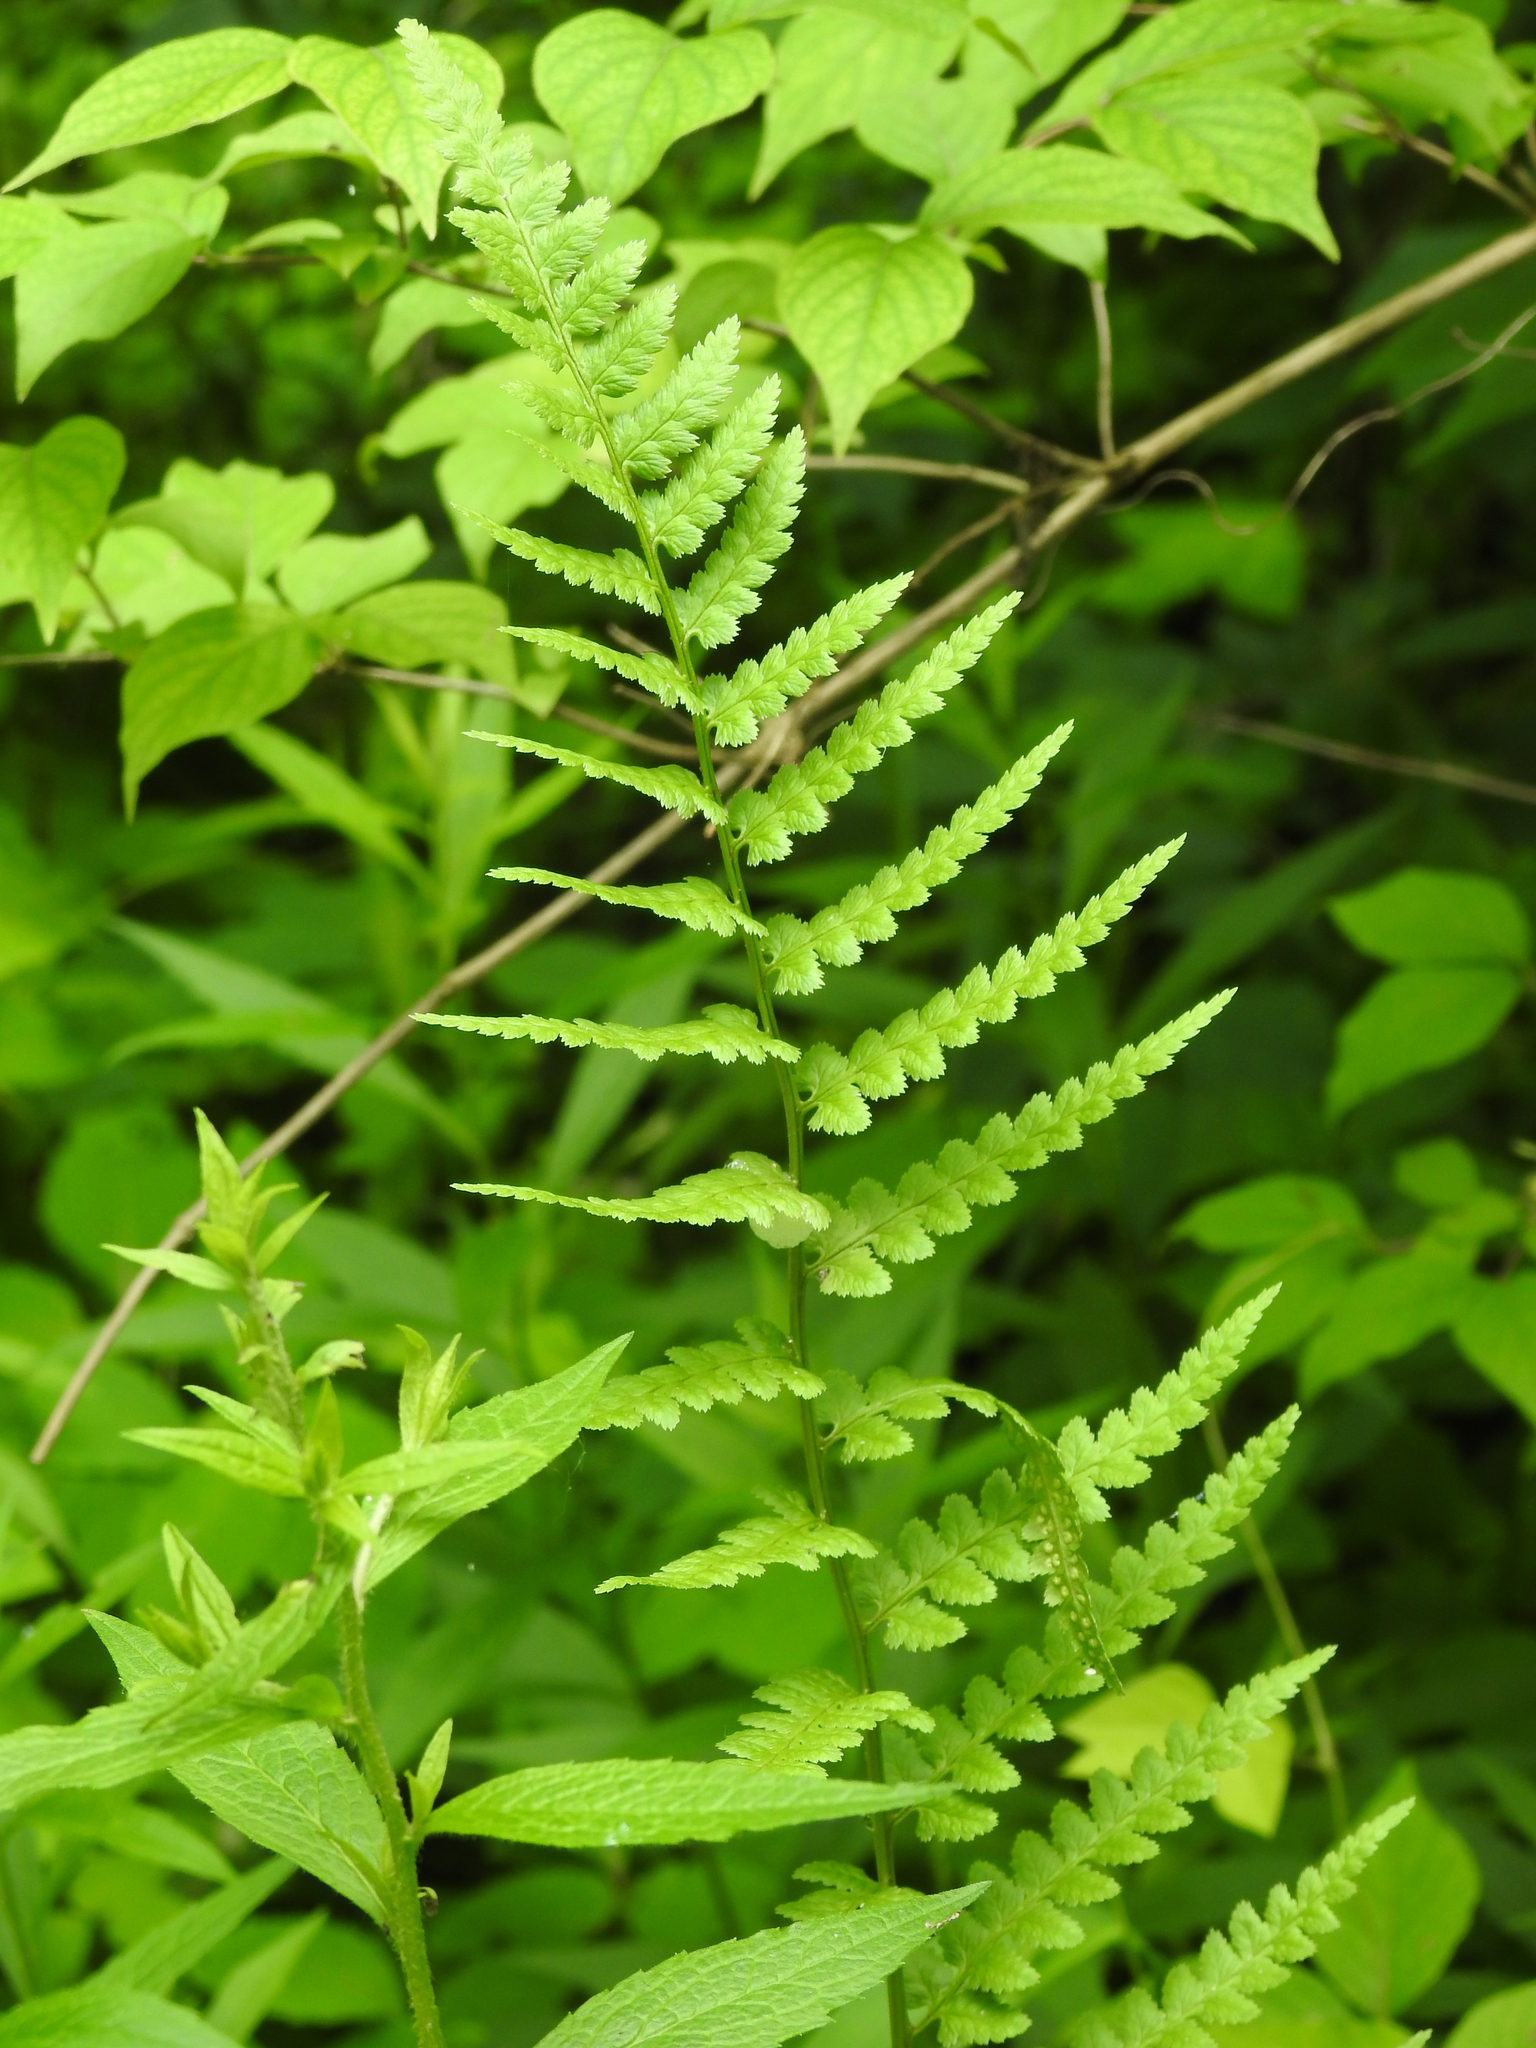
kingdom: Plantae
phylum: Tracheophyta
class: Polypodiopsida
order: Polypodiales
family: Dryopteridaceae
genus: Dryopteris
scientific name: Dryopteris cristata
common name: Crested wood fern
